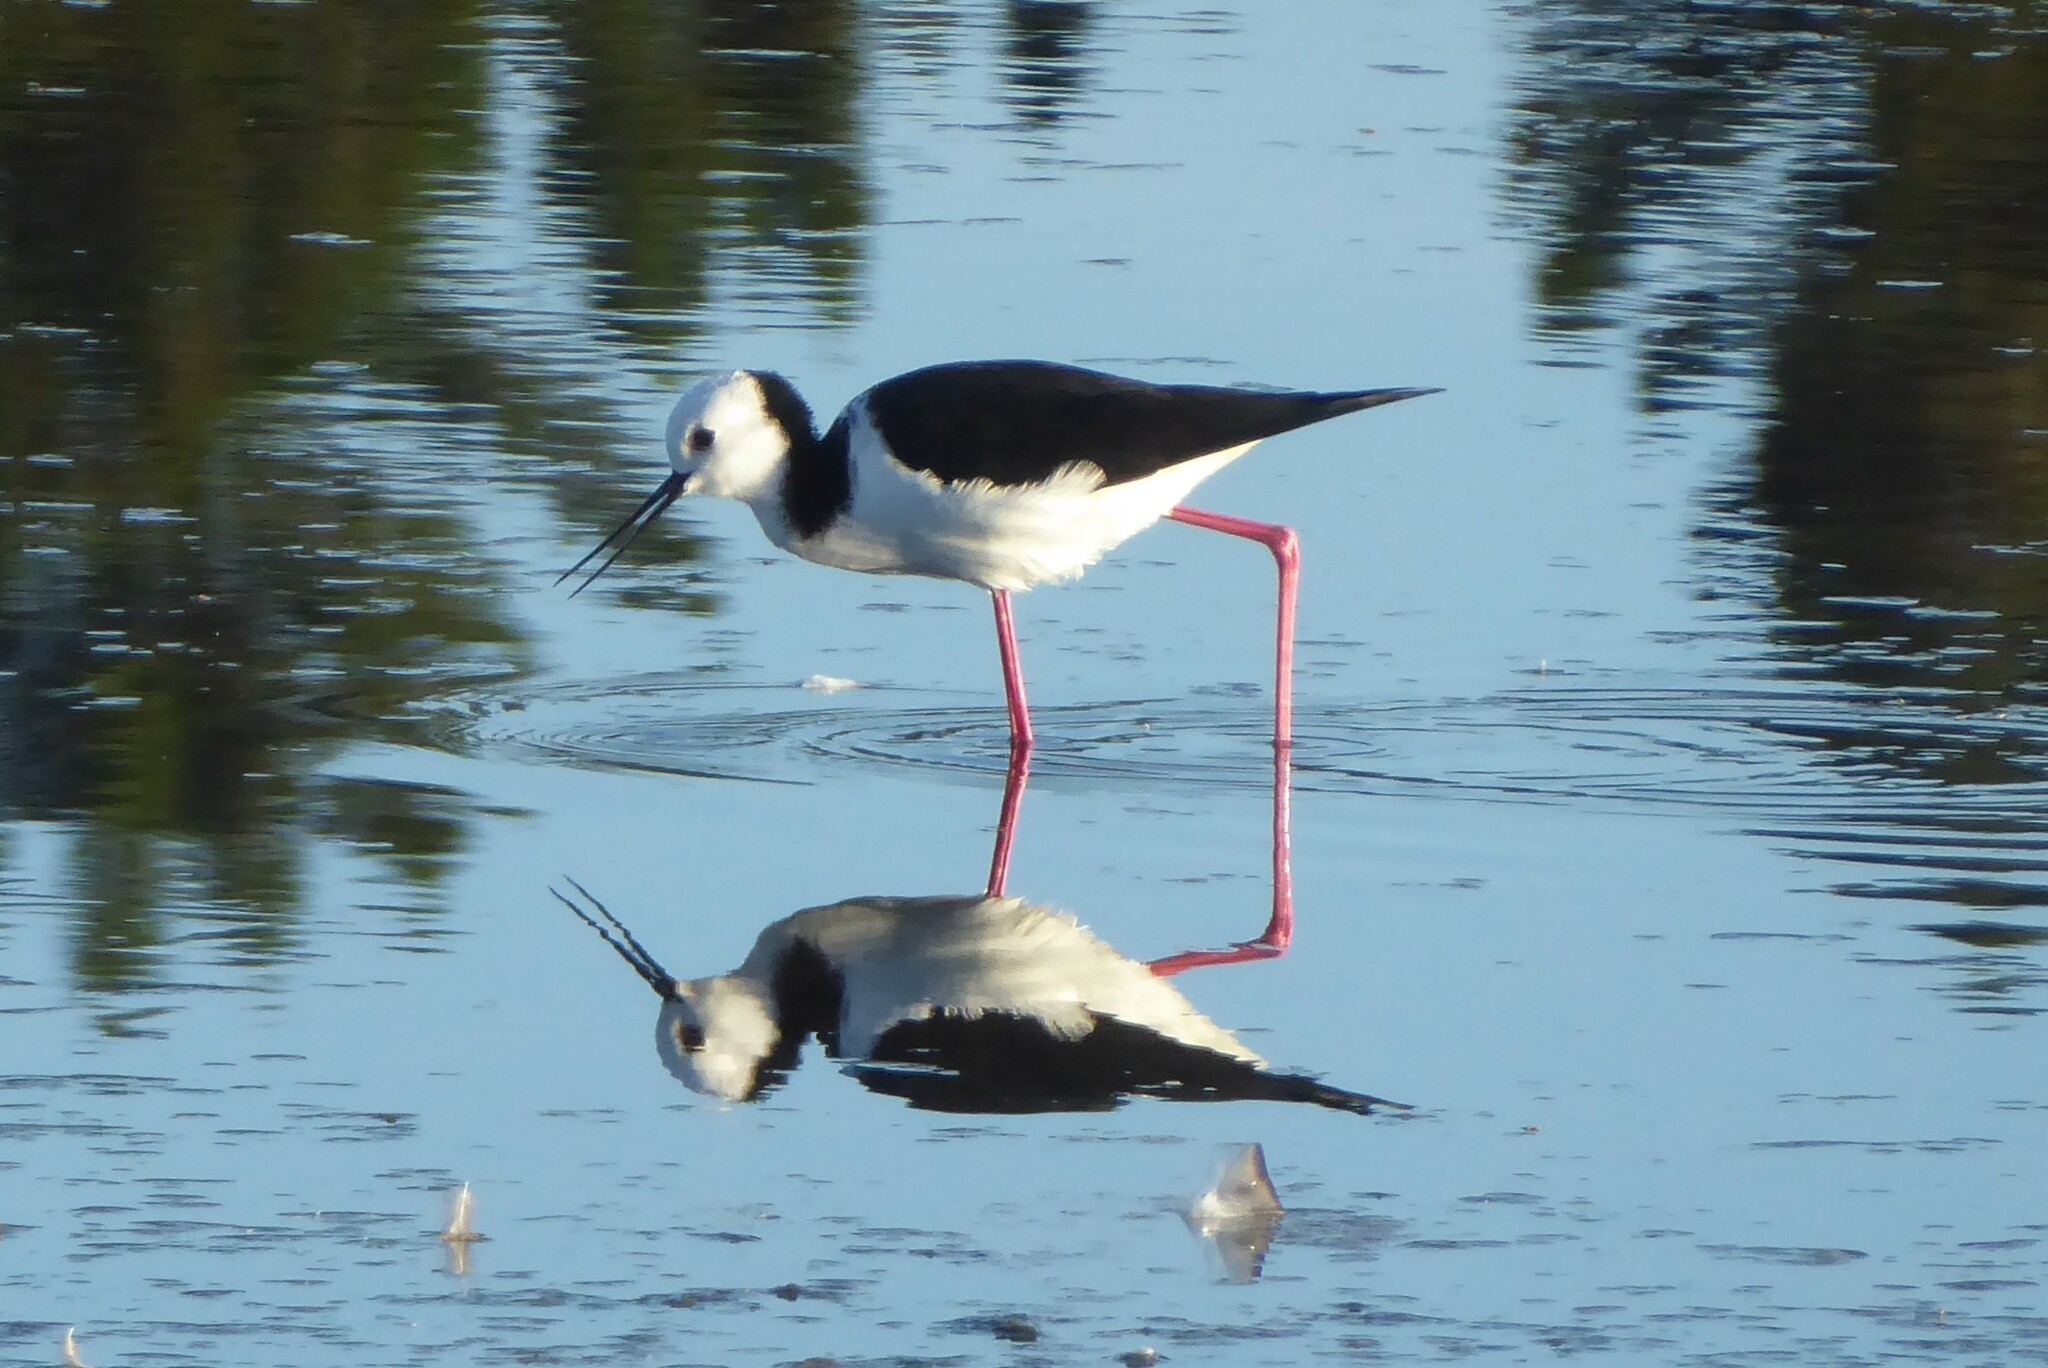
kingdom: Animalia
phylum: Chordata
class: Aves
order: Charadriiformes
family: Recurvirostridae
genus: Himantopus
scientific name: Himantopus leucocephalus
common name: White-headed stilt
